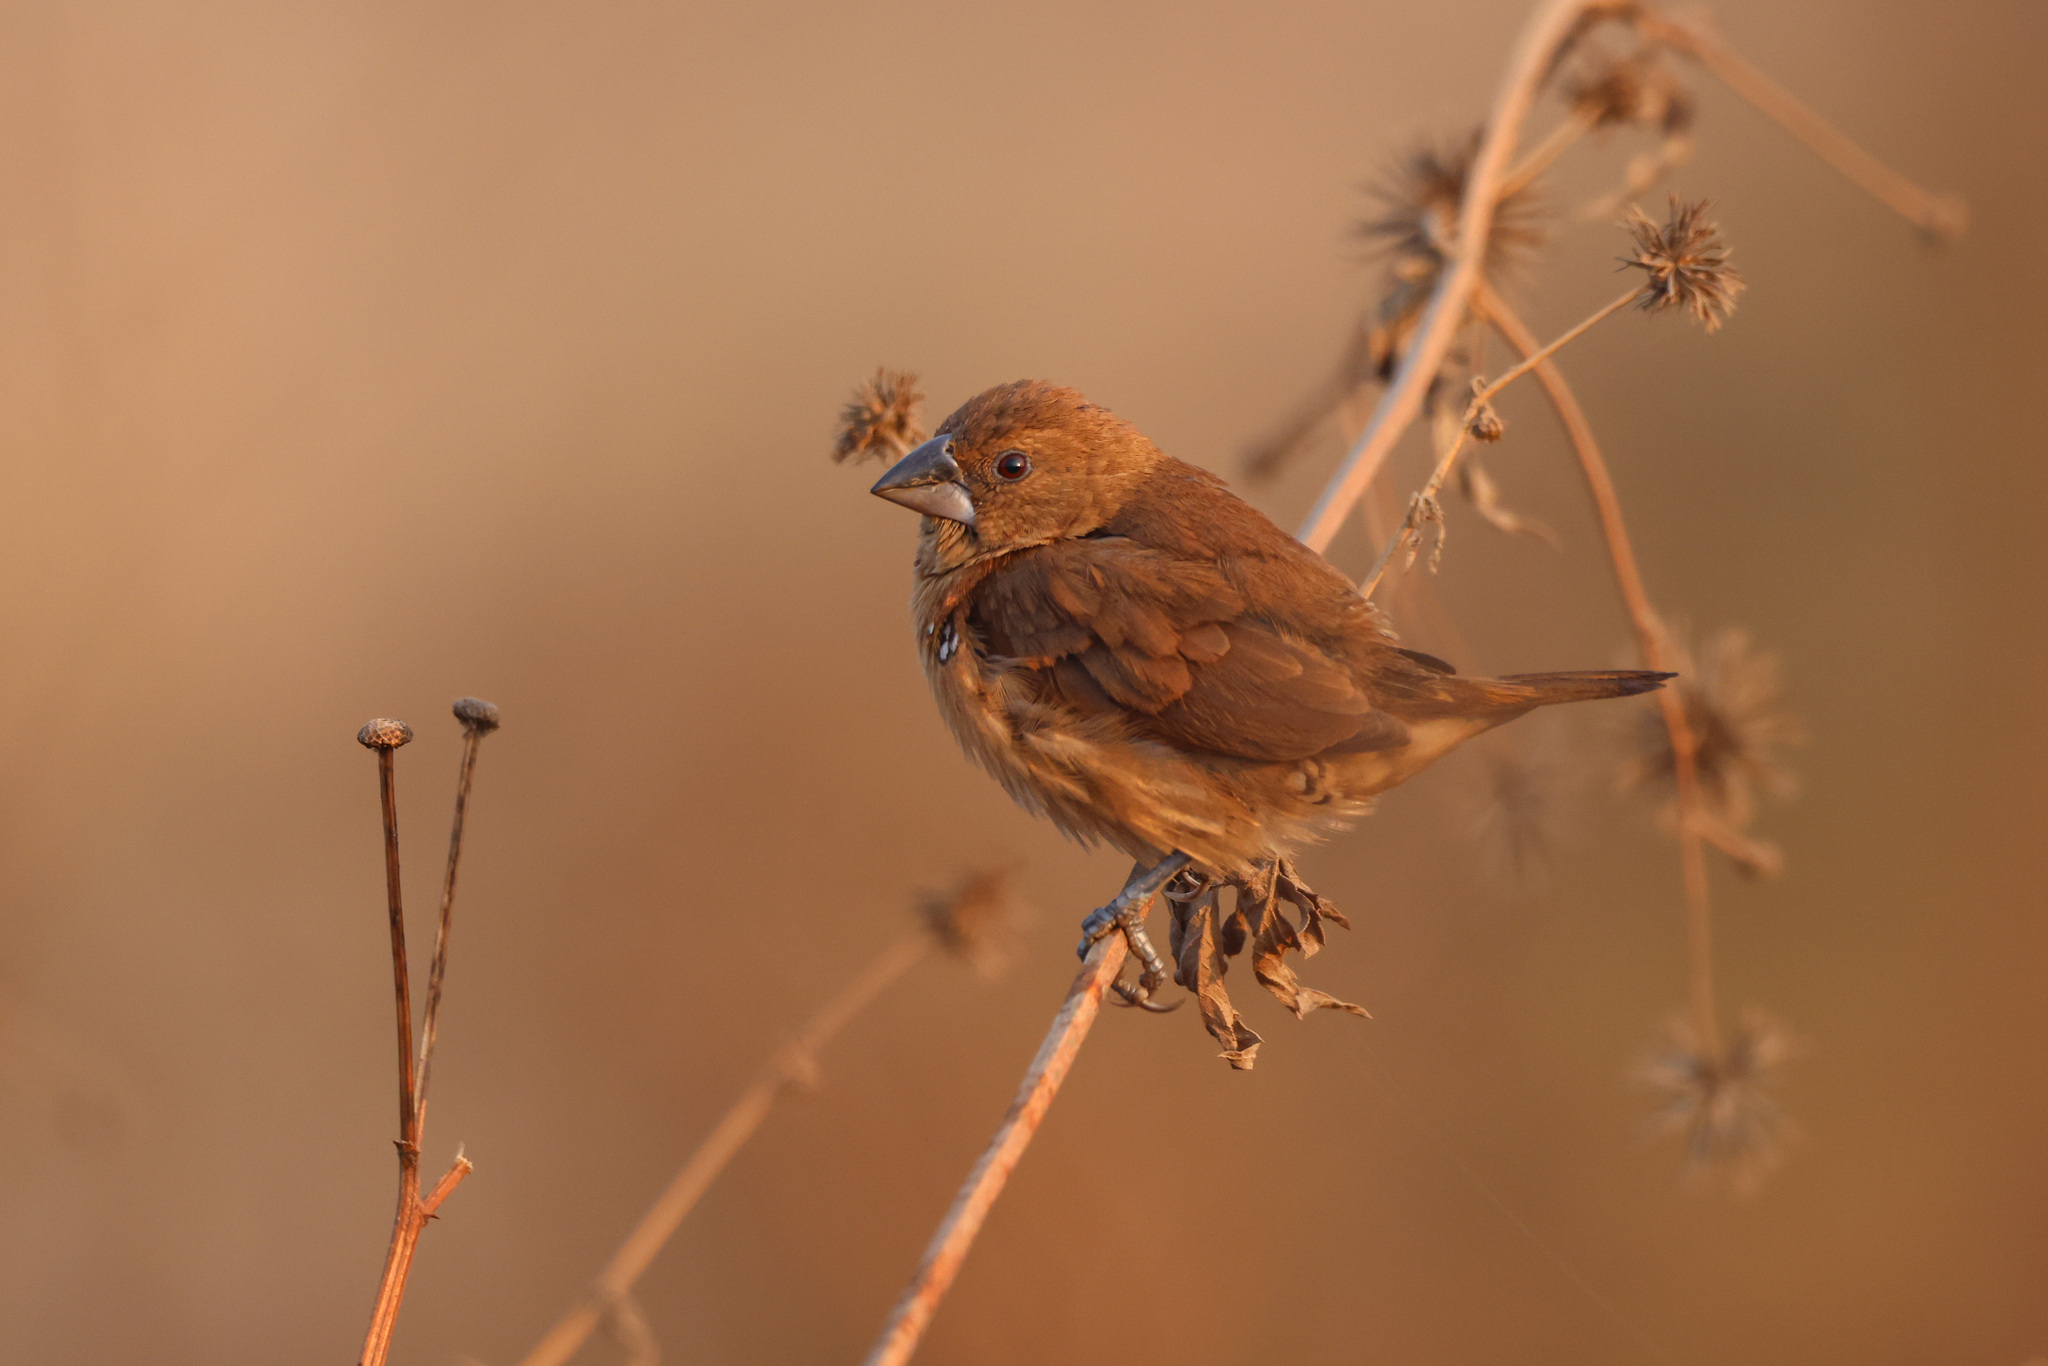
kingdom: Animalia
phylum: Chordata
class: Aves
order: Passeriformes
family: Estrildidae
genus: Lonchura
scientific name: Lonchura punctulata
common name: Scaly-breasted munia
